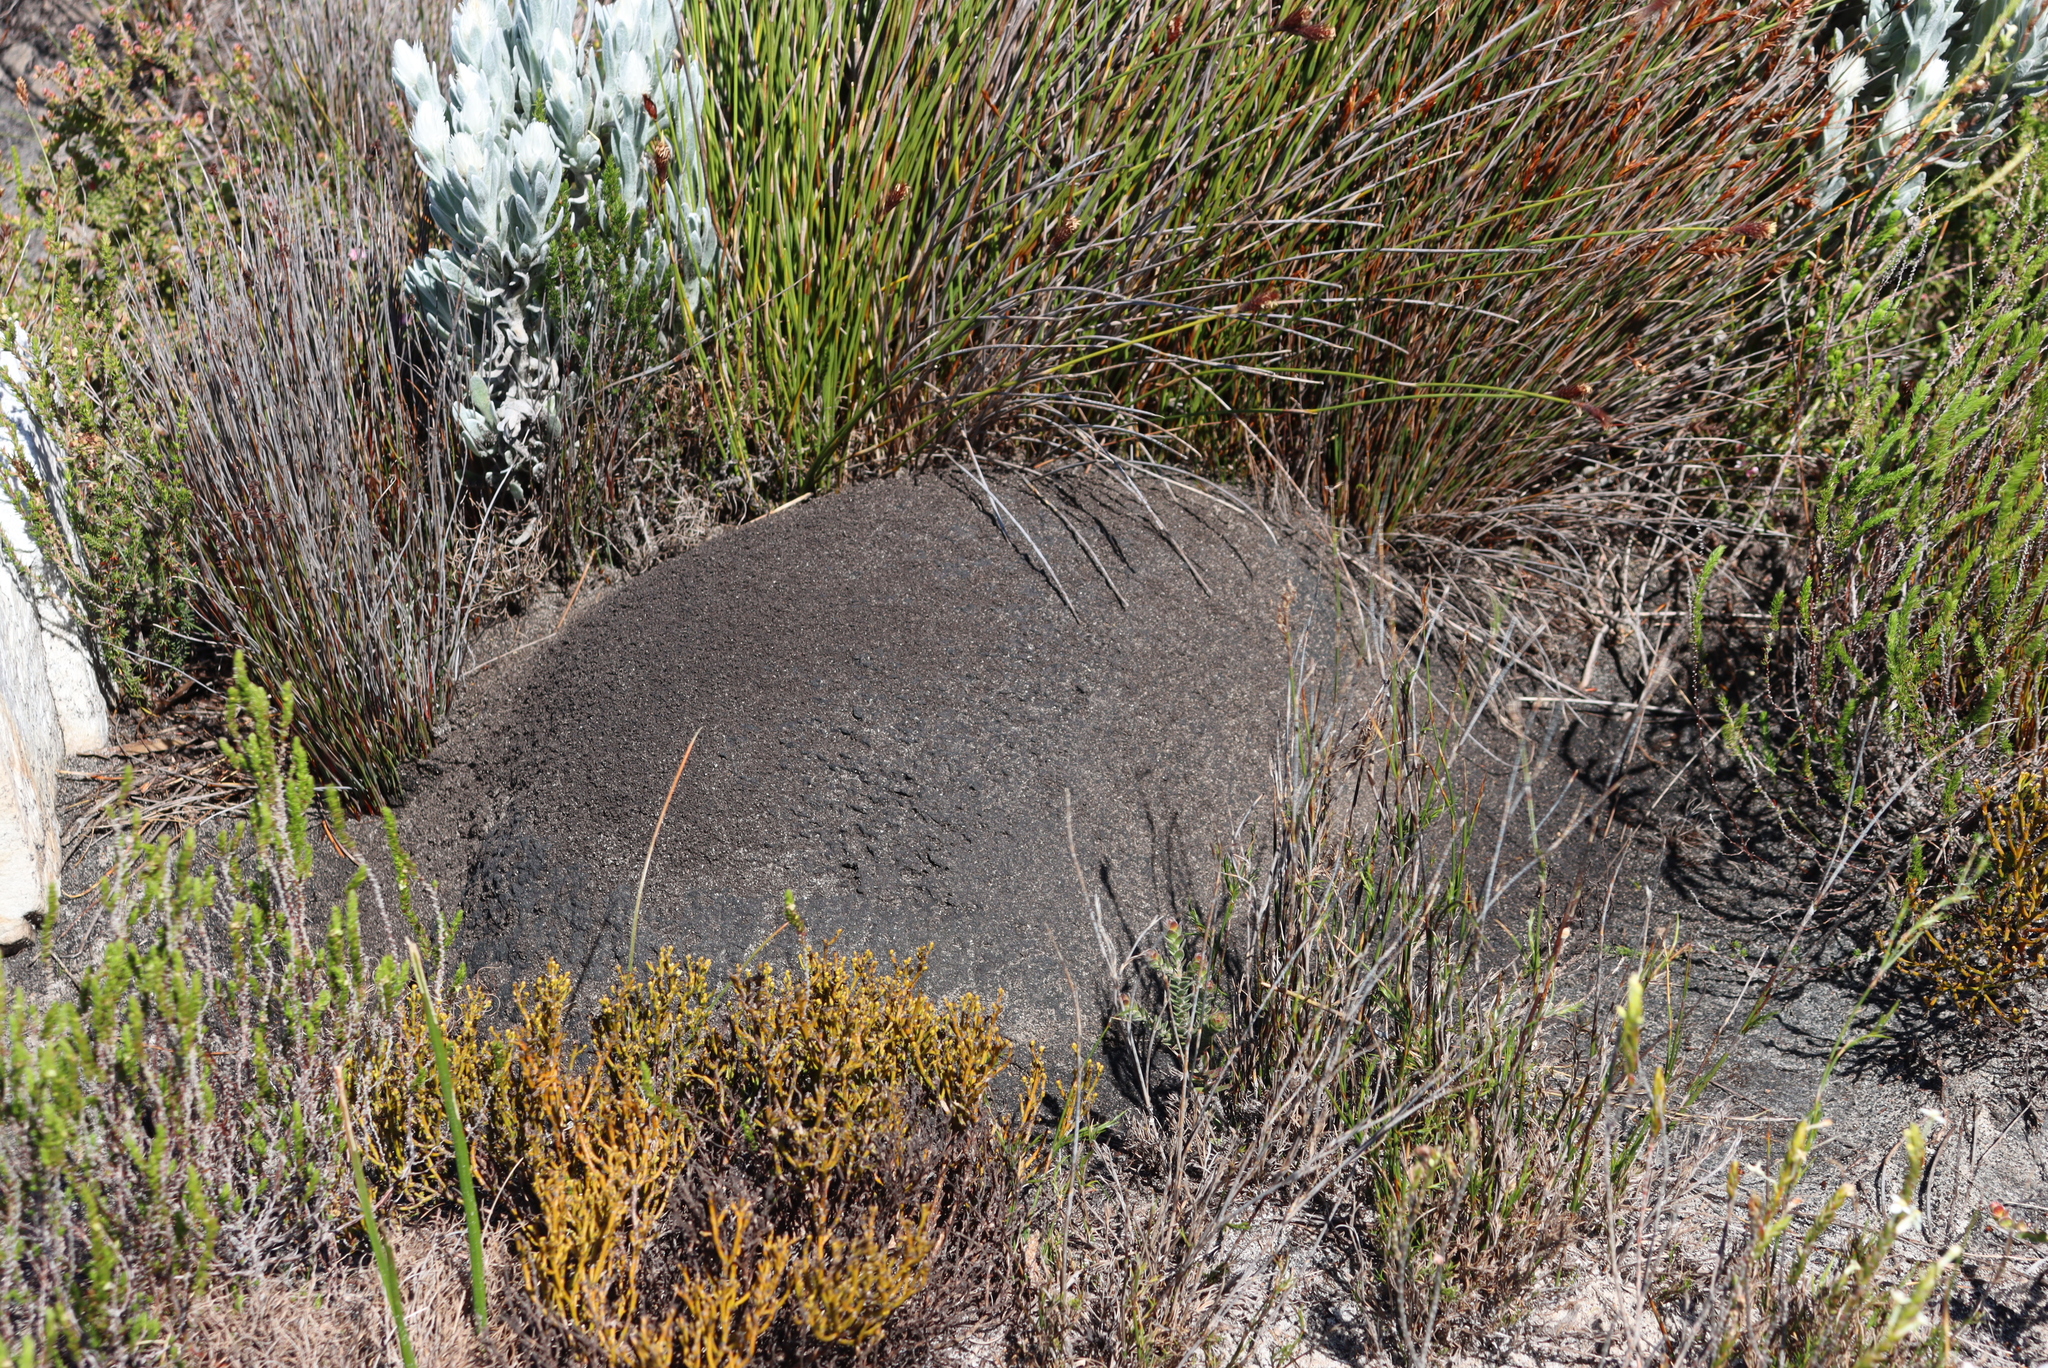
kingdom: Animalia
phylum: Arthropoda
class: Insecta
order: Blattodea
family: Termitidae
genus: Amitermes
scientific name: Amitermes hastatus
